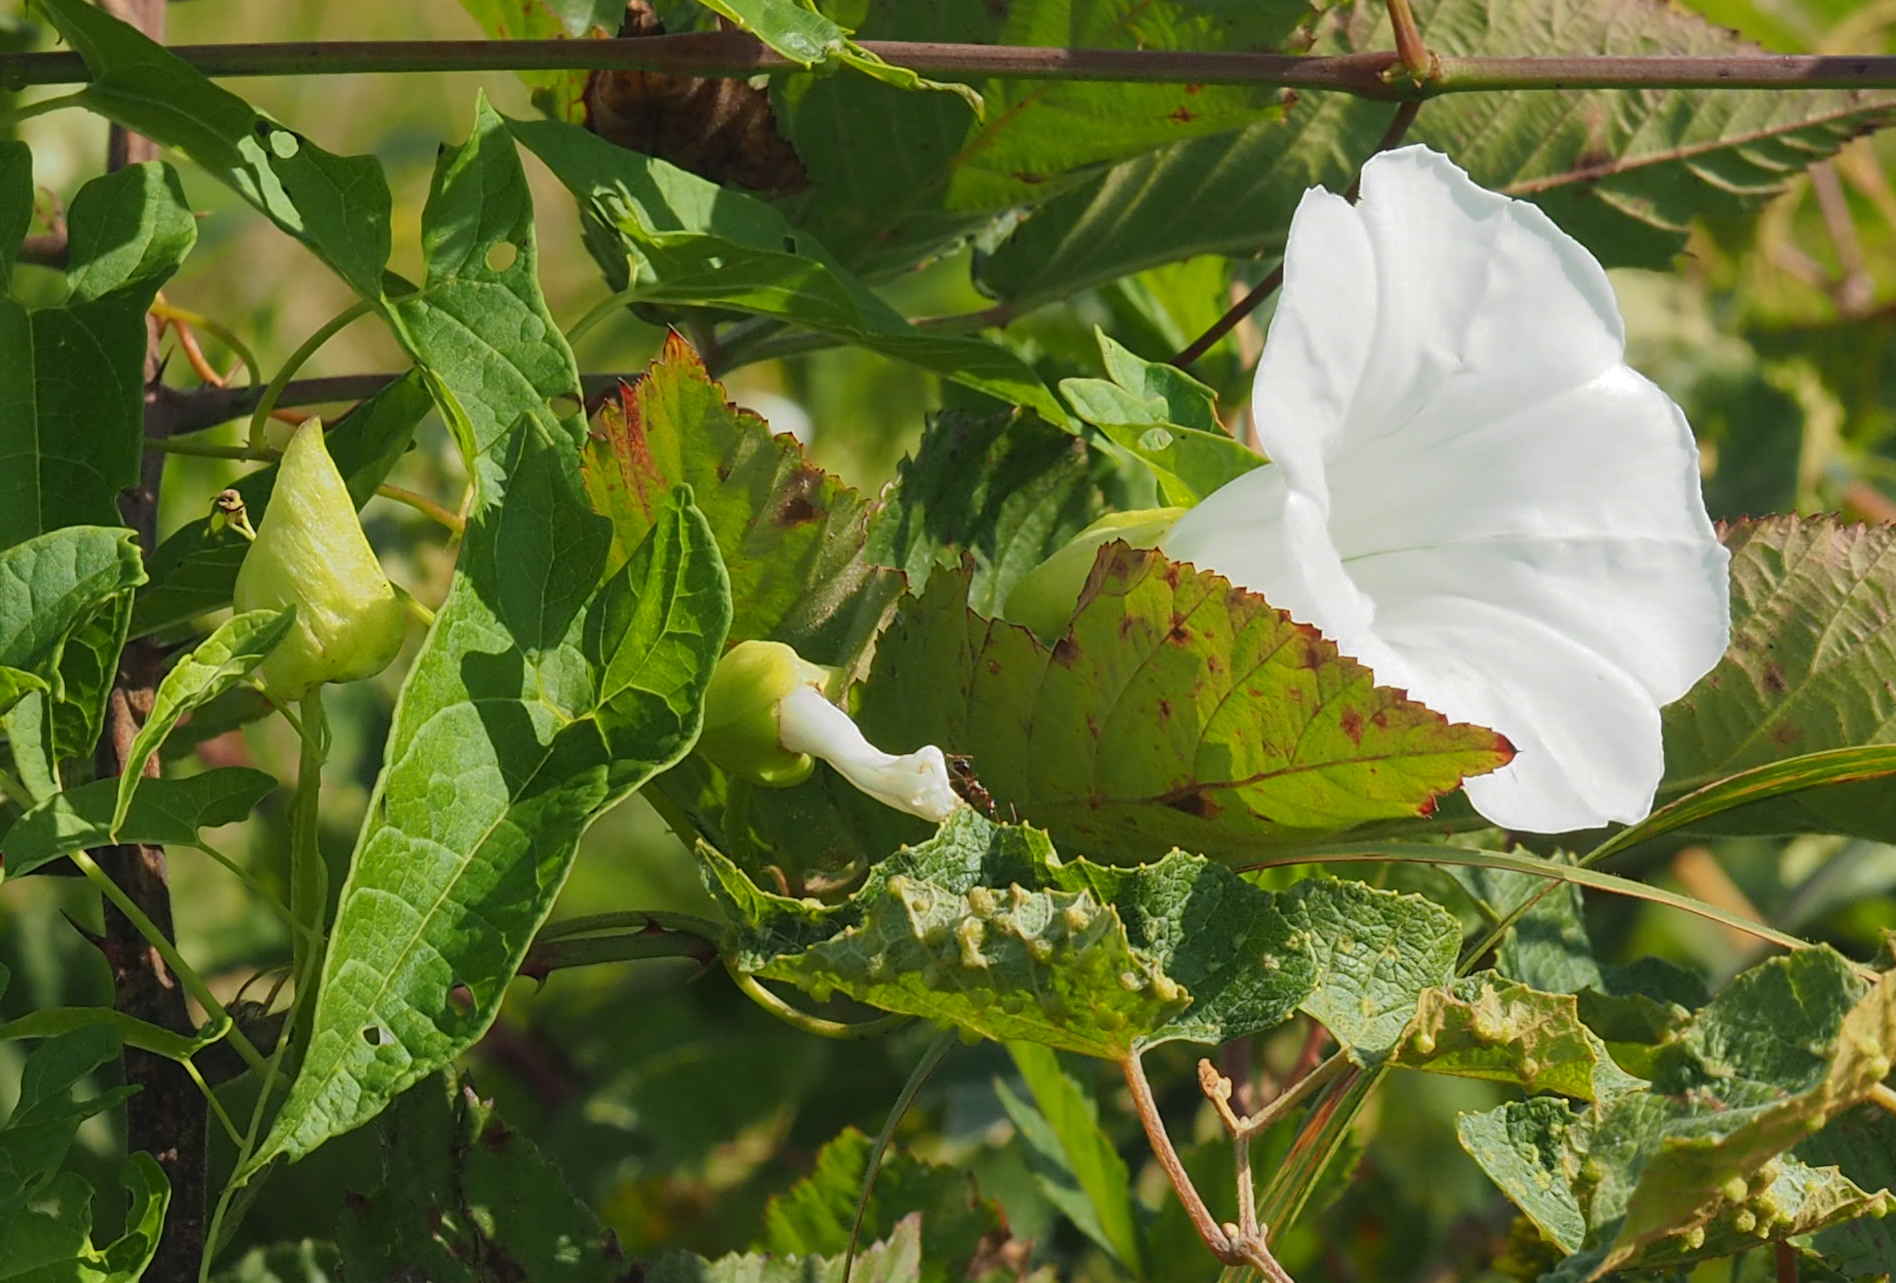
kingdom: Plantae
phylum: Tracheophyta
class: Magnoliopsida
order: Solanales
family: Convolvulaceae
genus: Calystegia
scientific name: Calystegia sepium
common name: Hedge bindweed
